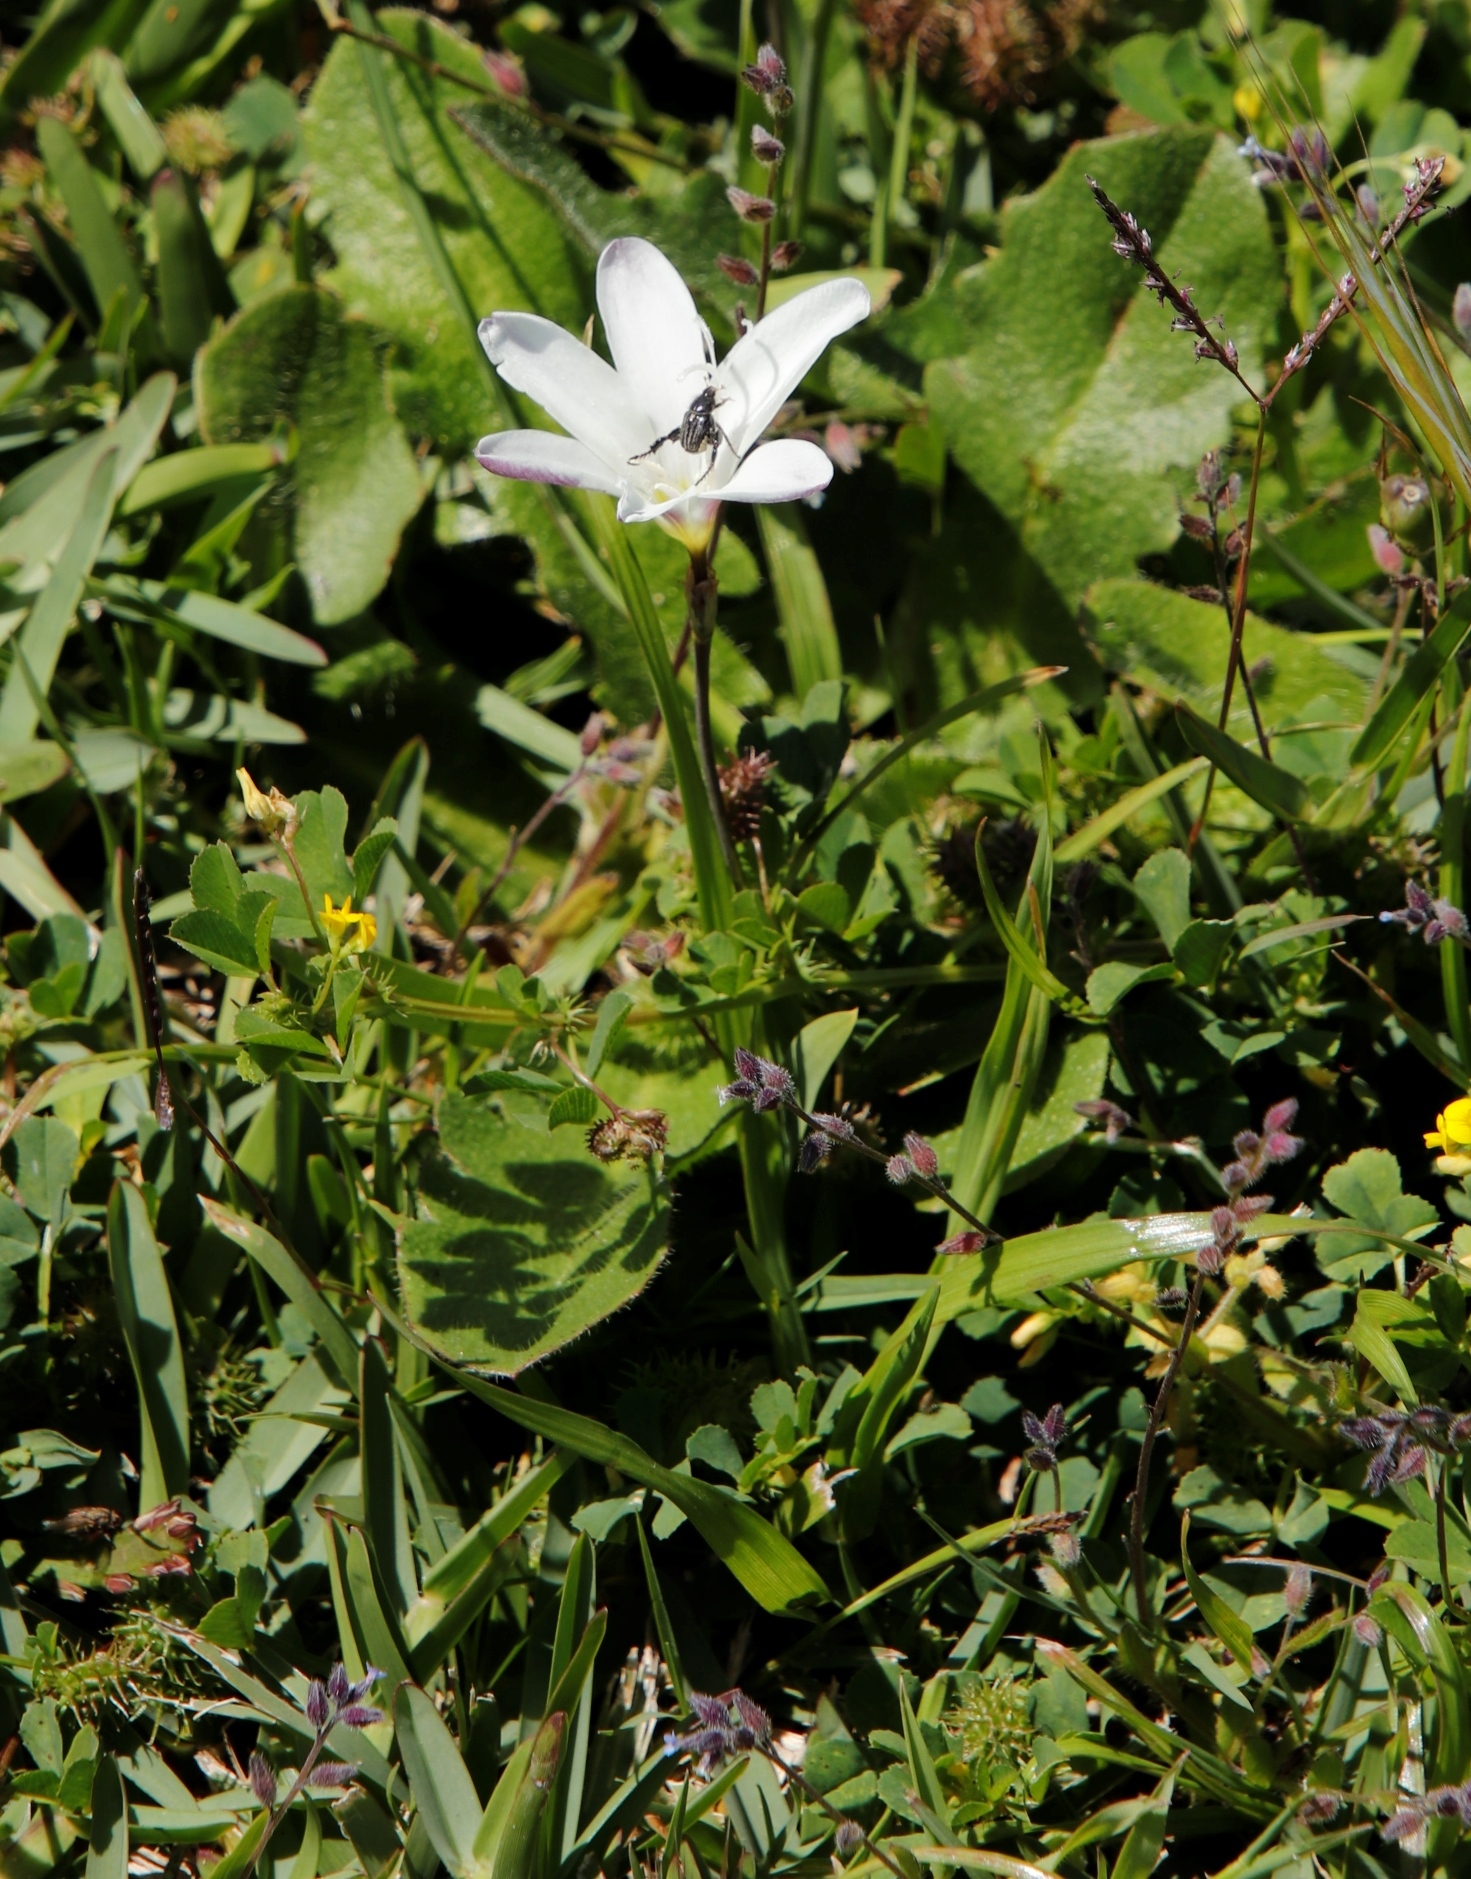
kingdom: Plantae
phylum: Tracheophyta
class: Liliopsida
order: Asparagales
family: Iridaceae
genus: Sparaxis
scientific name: Sparaxis bulbifera
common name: Harlequin-flower
